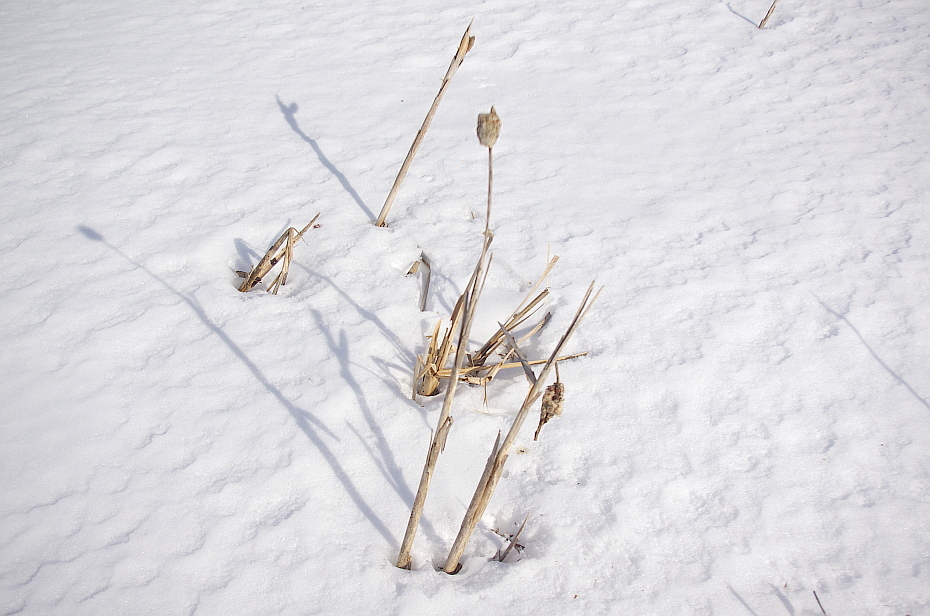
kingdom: Plantae
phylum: Tracheophyta
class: Liliopsida
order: Poales
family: Typhaceae
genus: Typha
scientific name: Typha latifolia
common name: Broadleaf cattail
